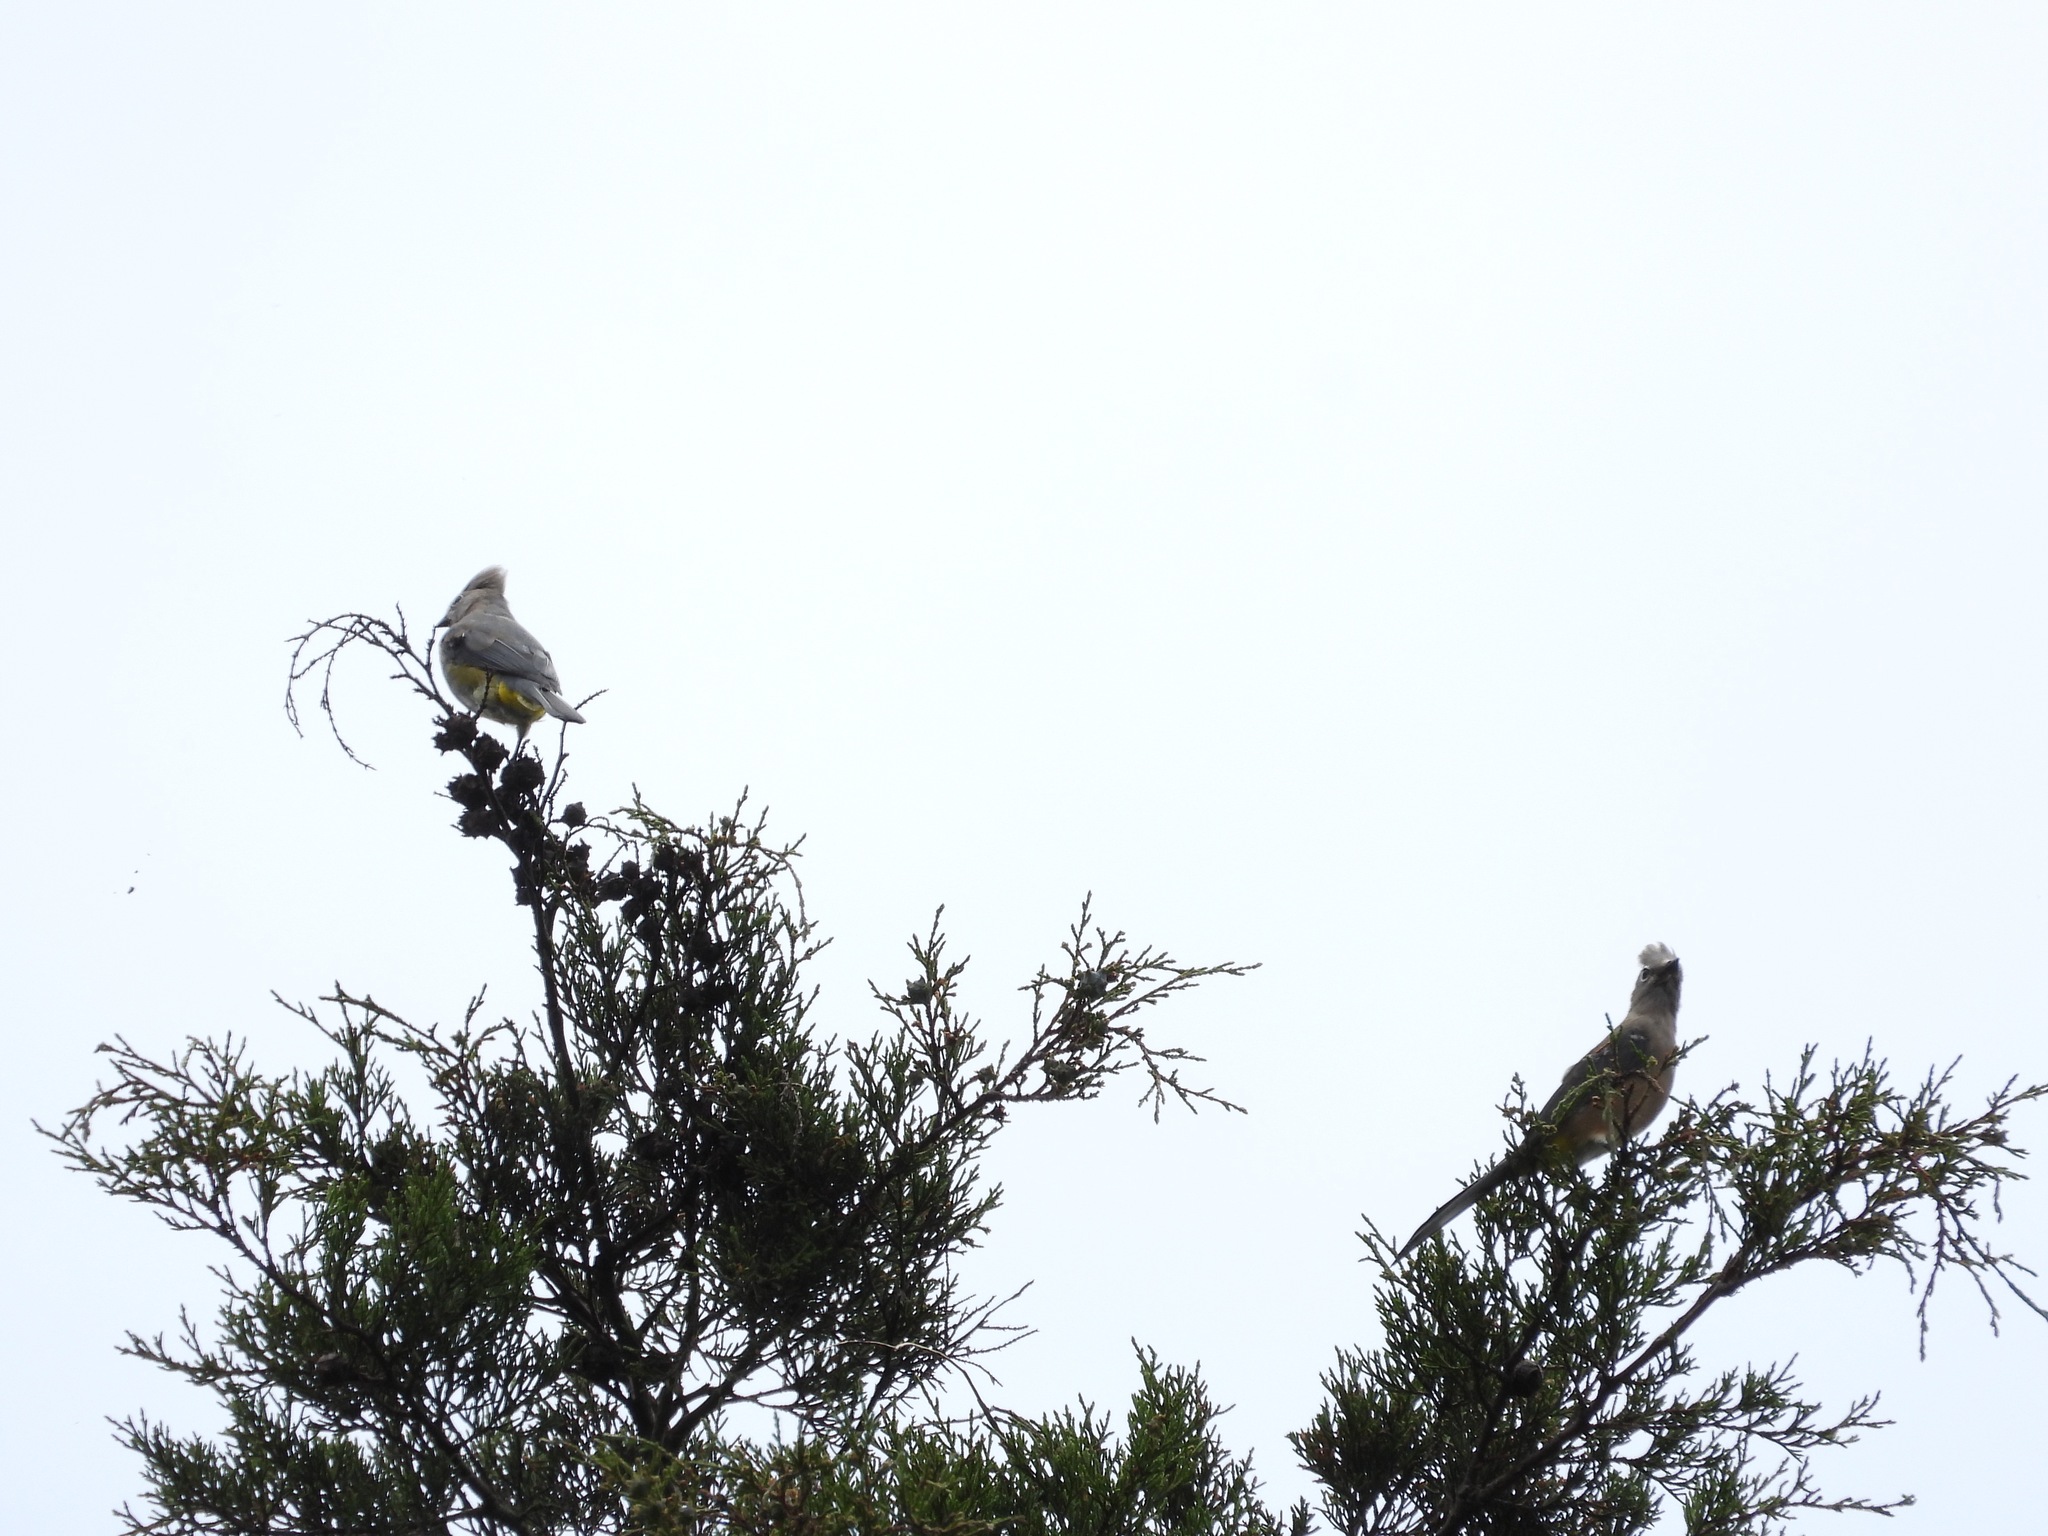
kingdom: Animalia
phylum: Chordata
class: Aves
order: Passeriformes
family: Ptilogonatidae
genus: Ptilogonys
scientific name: Ptilogonys cinereus
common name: Gray silky-flycatcher
